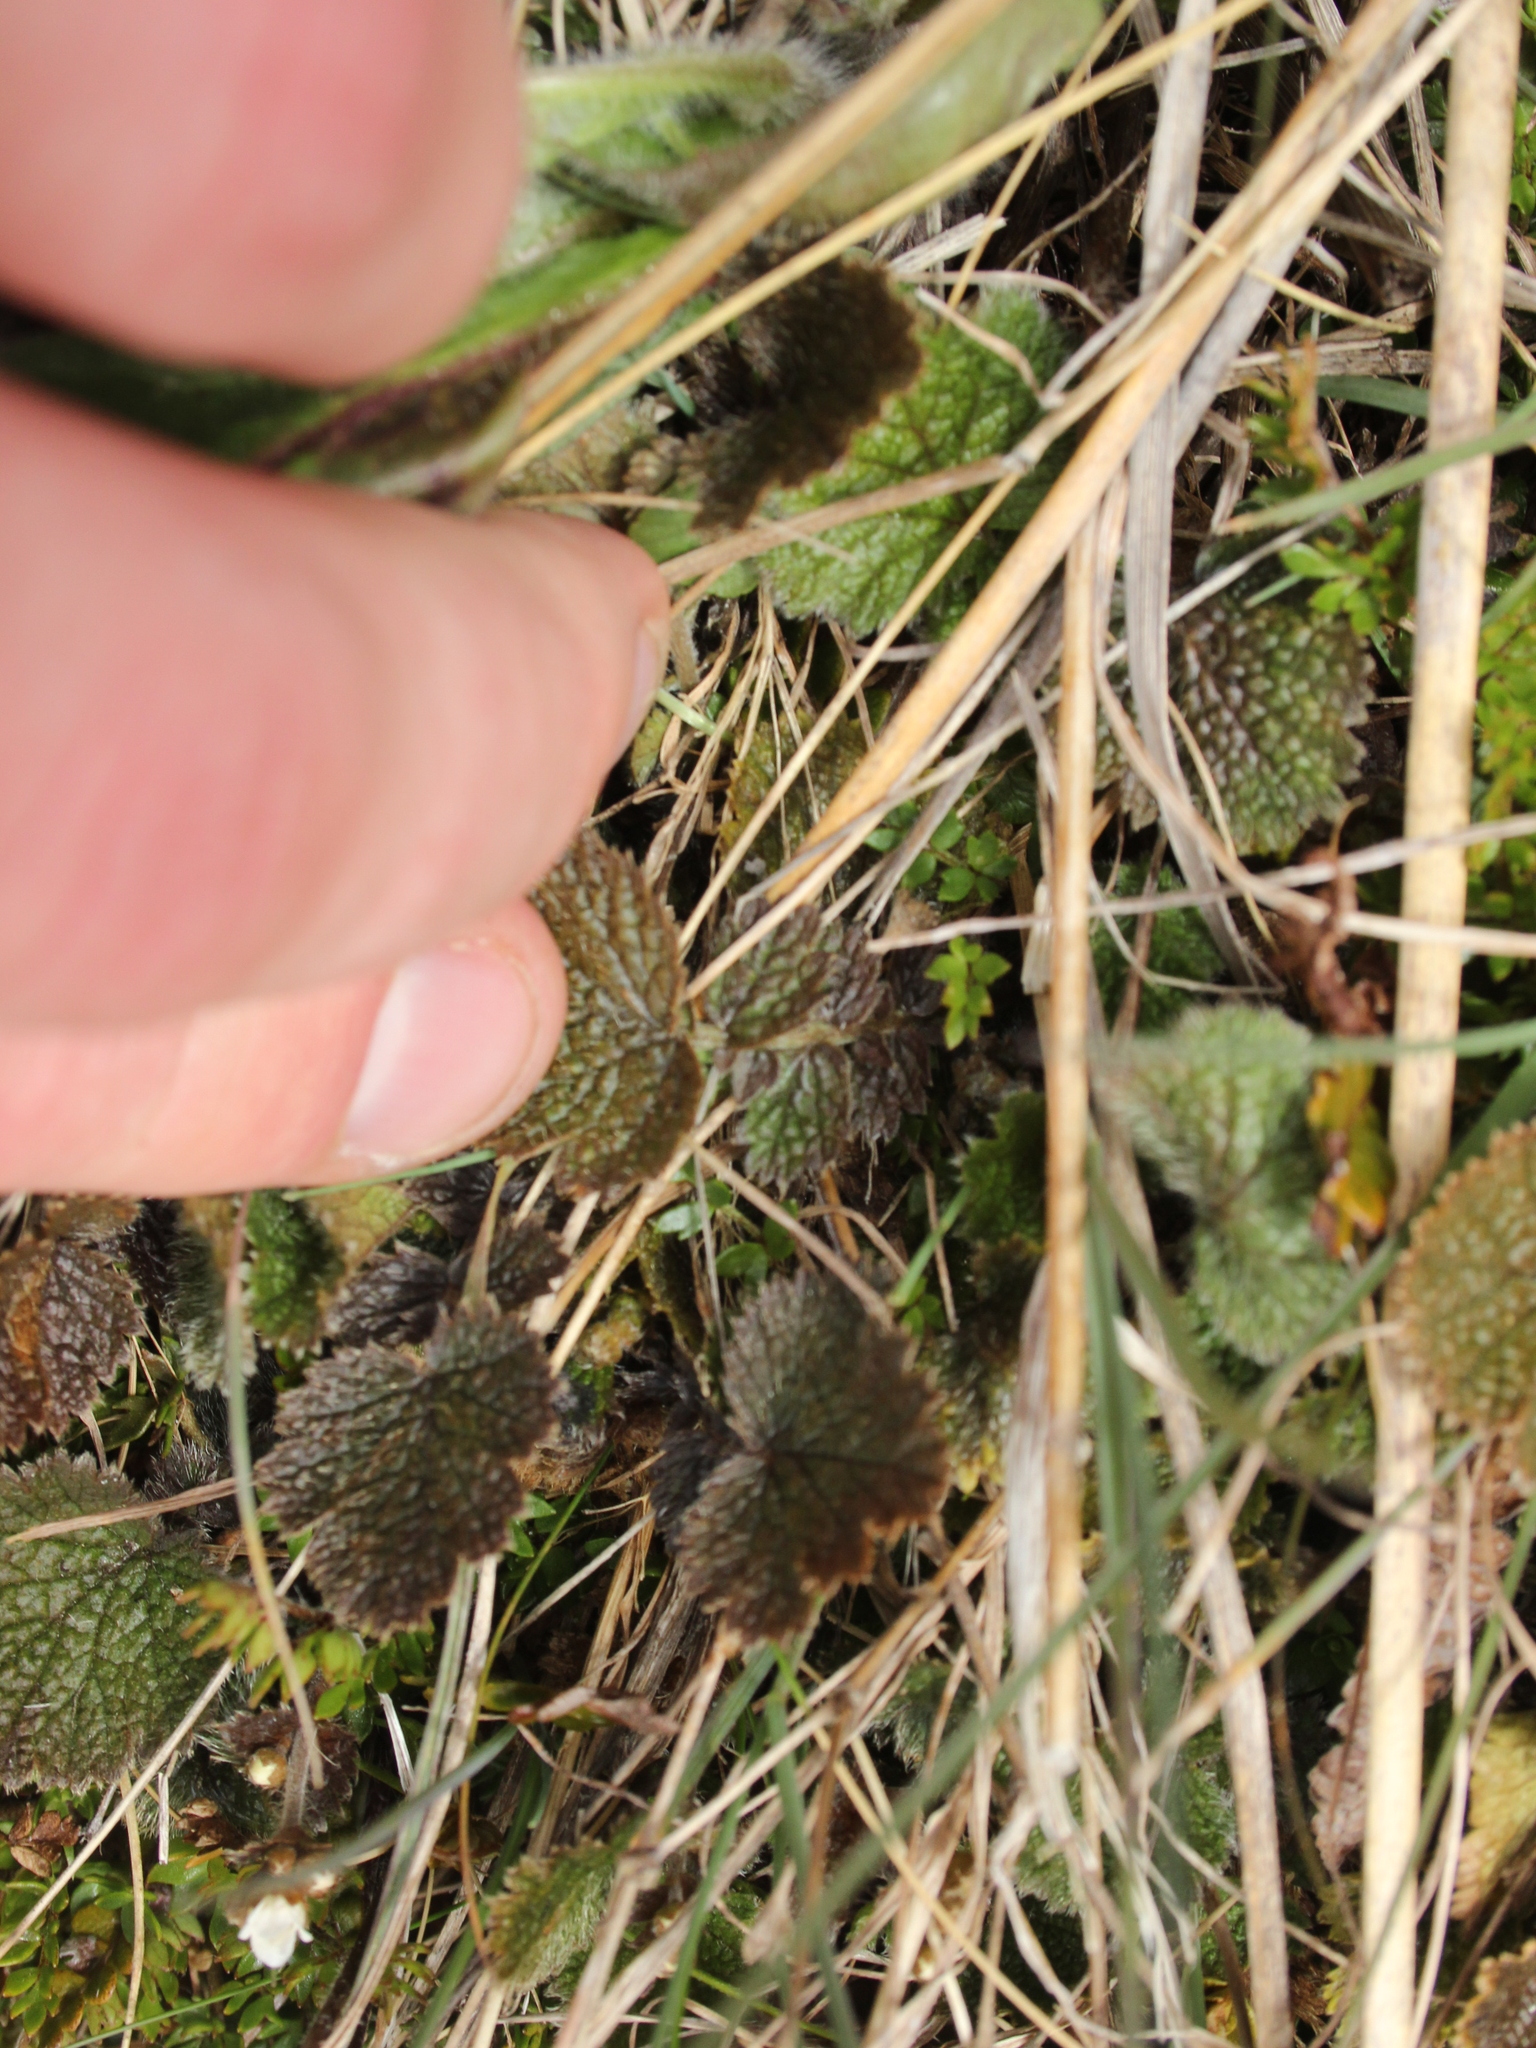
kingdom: Plantae
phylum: Tracheophyta
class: Magnoliopsida
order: Rosales
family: Rosaceae
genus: Geum
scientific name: Geum leiospermum
